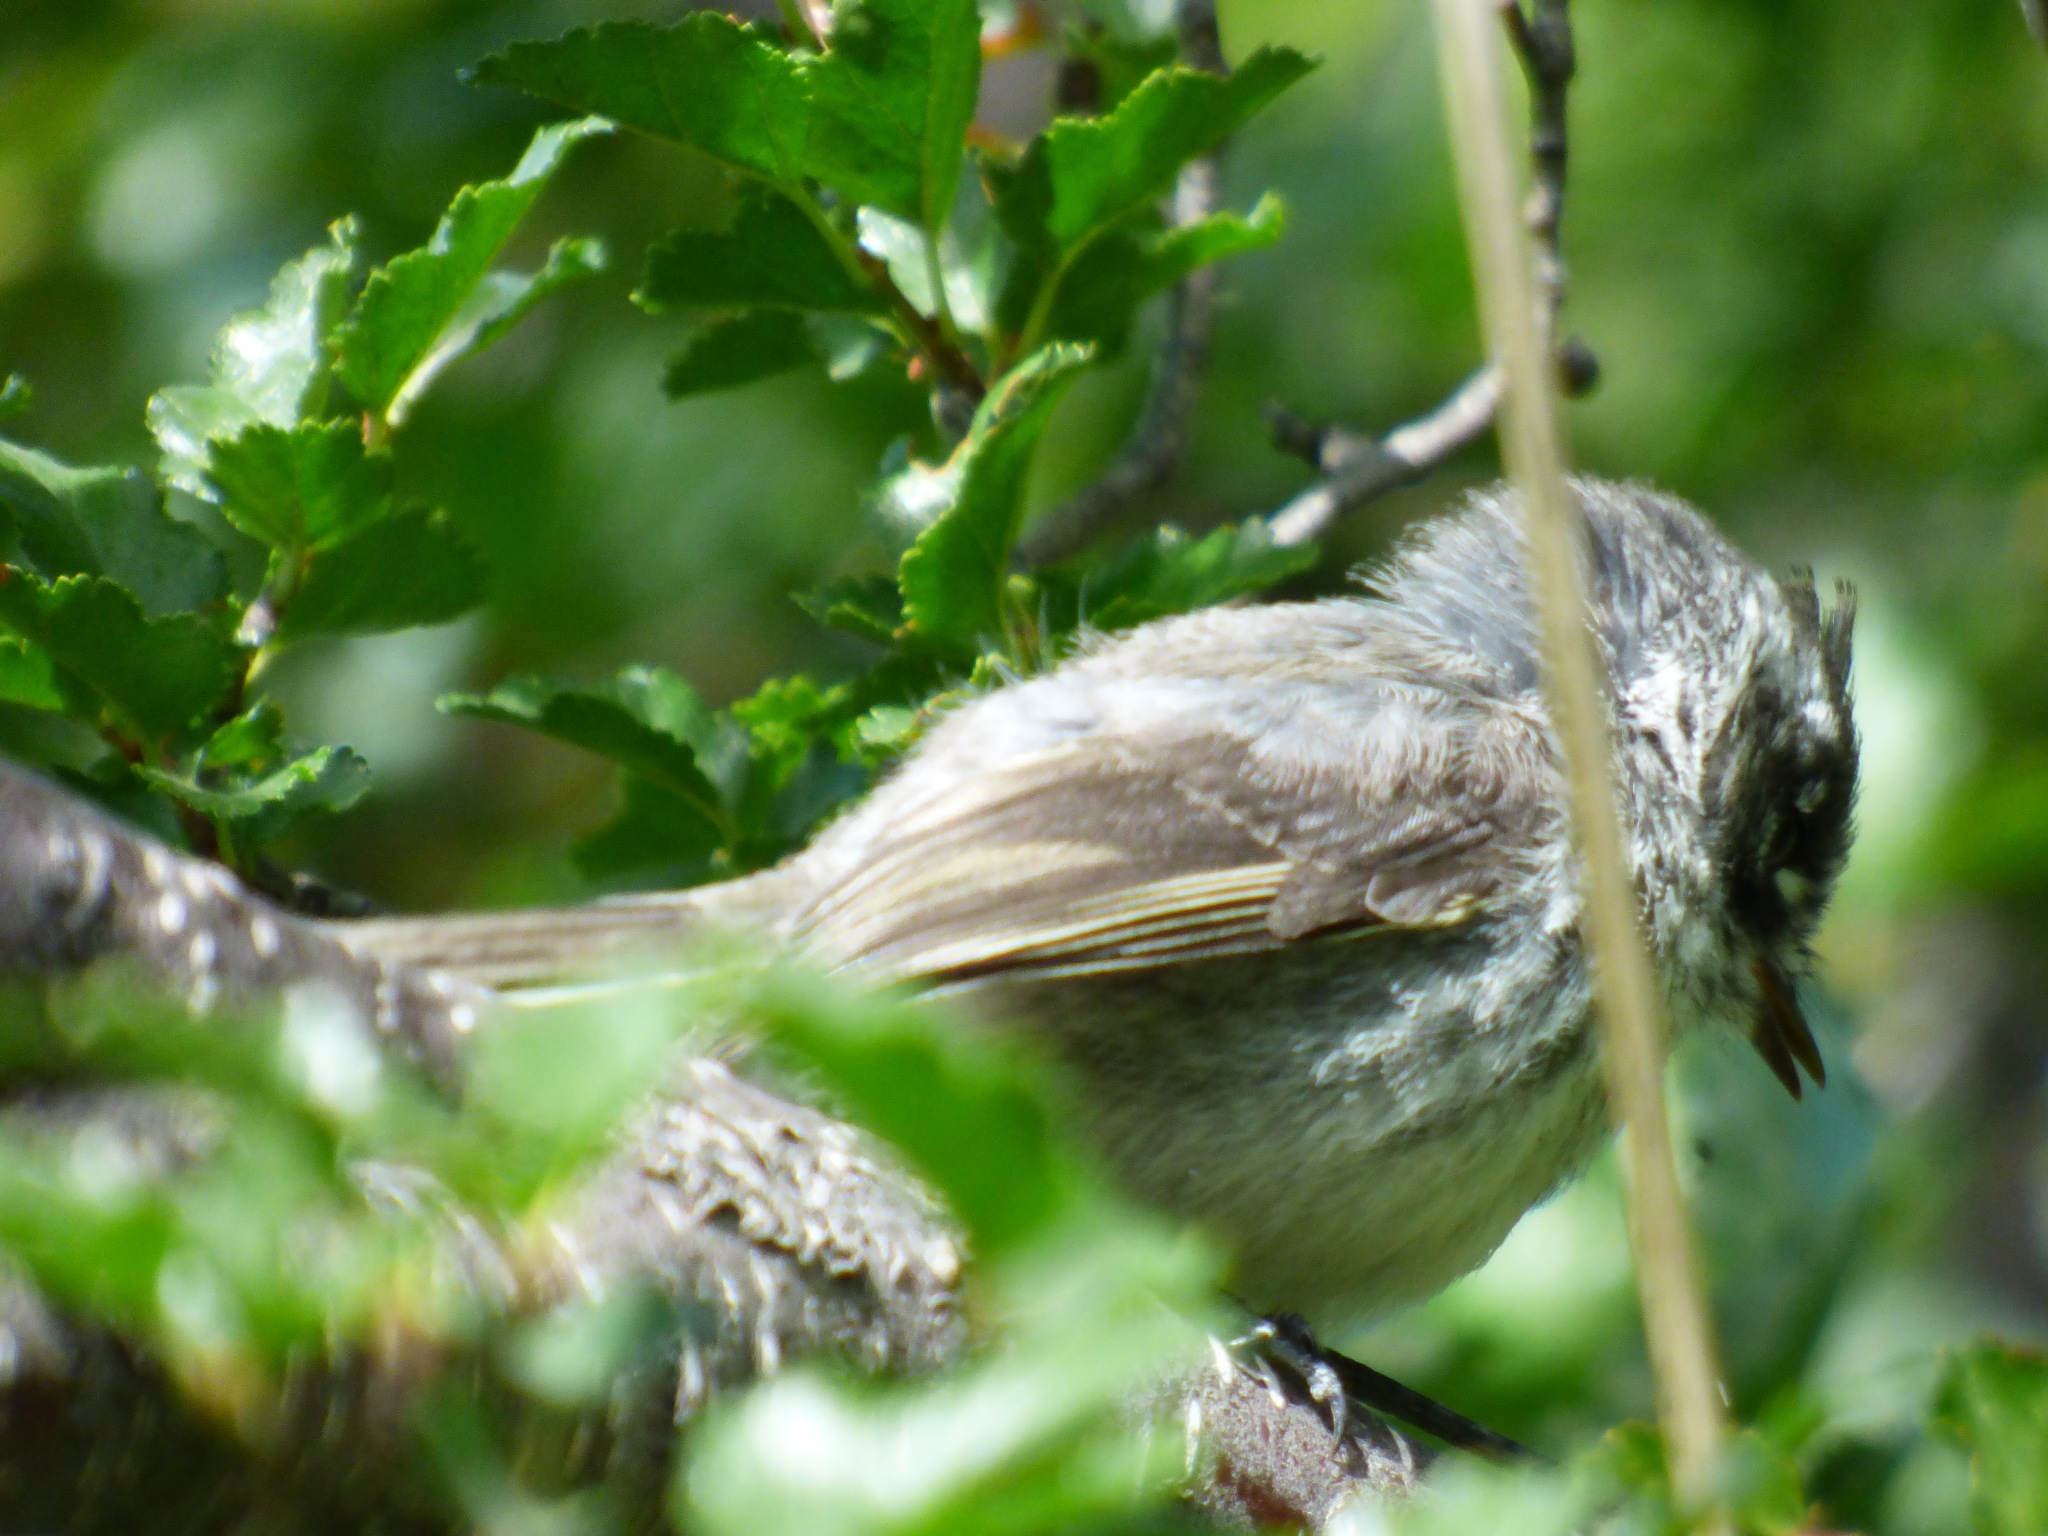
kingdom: Animalia
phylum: Chordata
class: Aves
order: Passeriformes
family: Tyrannidae
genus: Anairetes
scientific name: Anairetes parulus
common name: Tufted tit-tyrant
